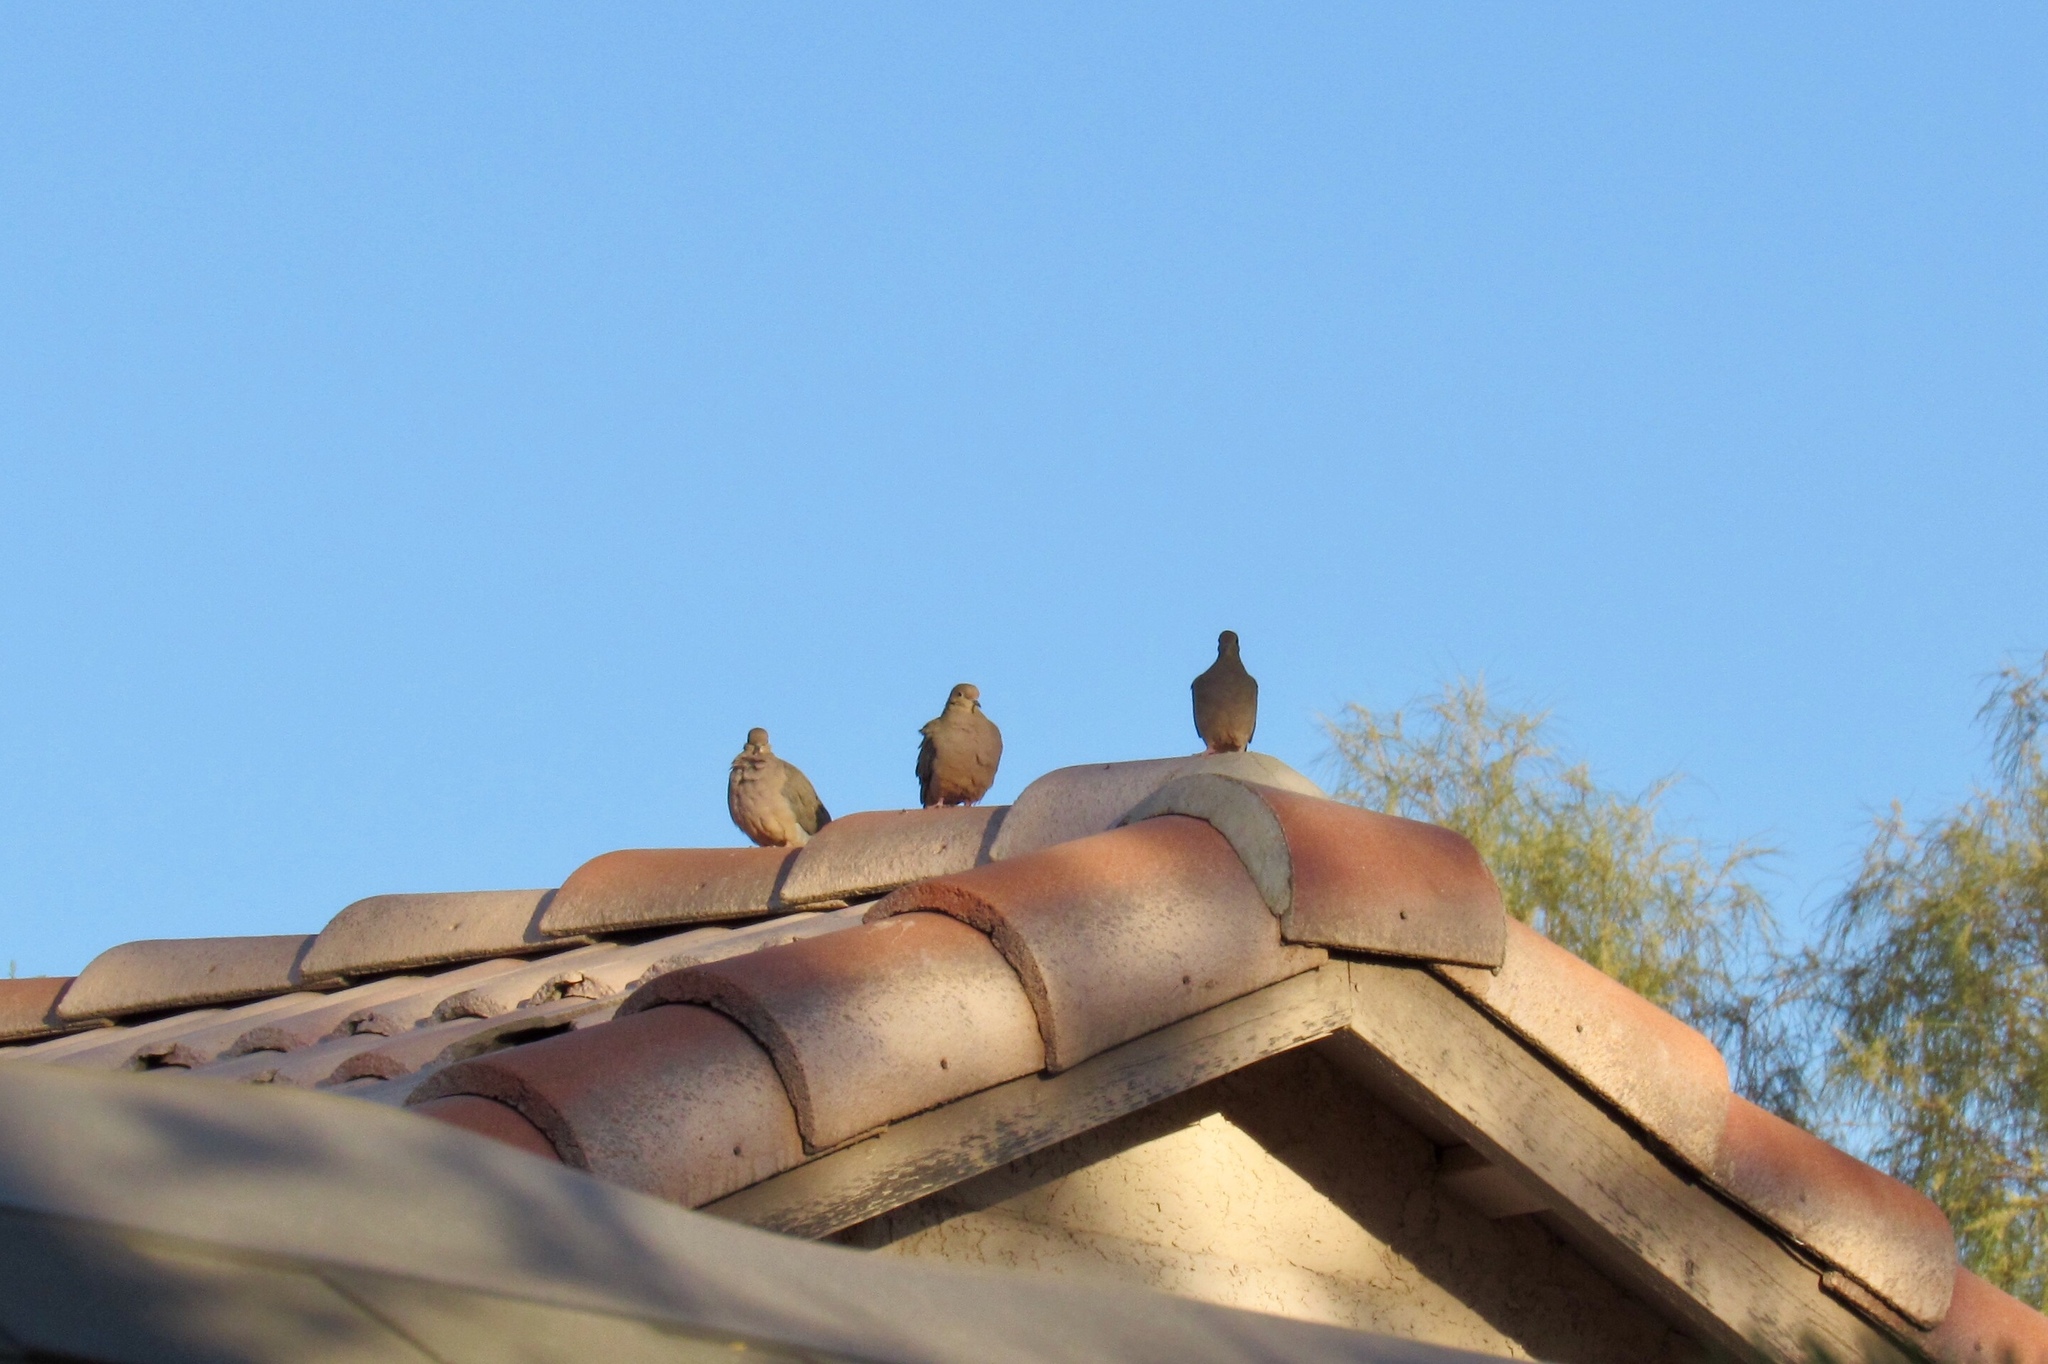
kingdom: Animalia
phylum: Chordata
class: Aves
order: Columbiformes
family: Columbidae
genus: Zenaida
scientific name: Zenaida macroura
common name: Mourning dove
